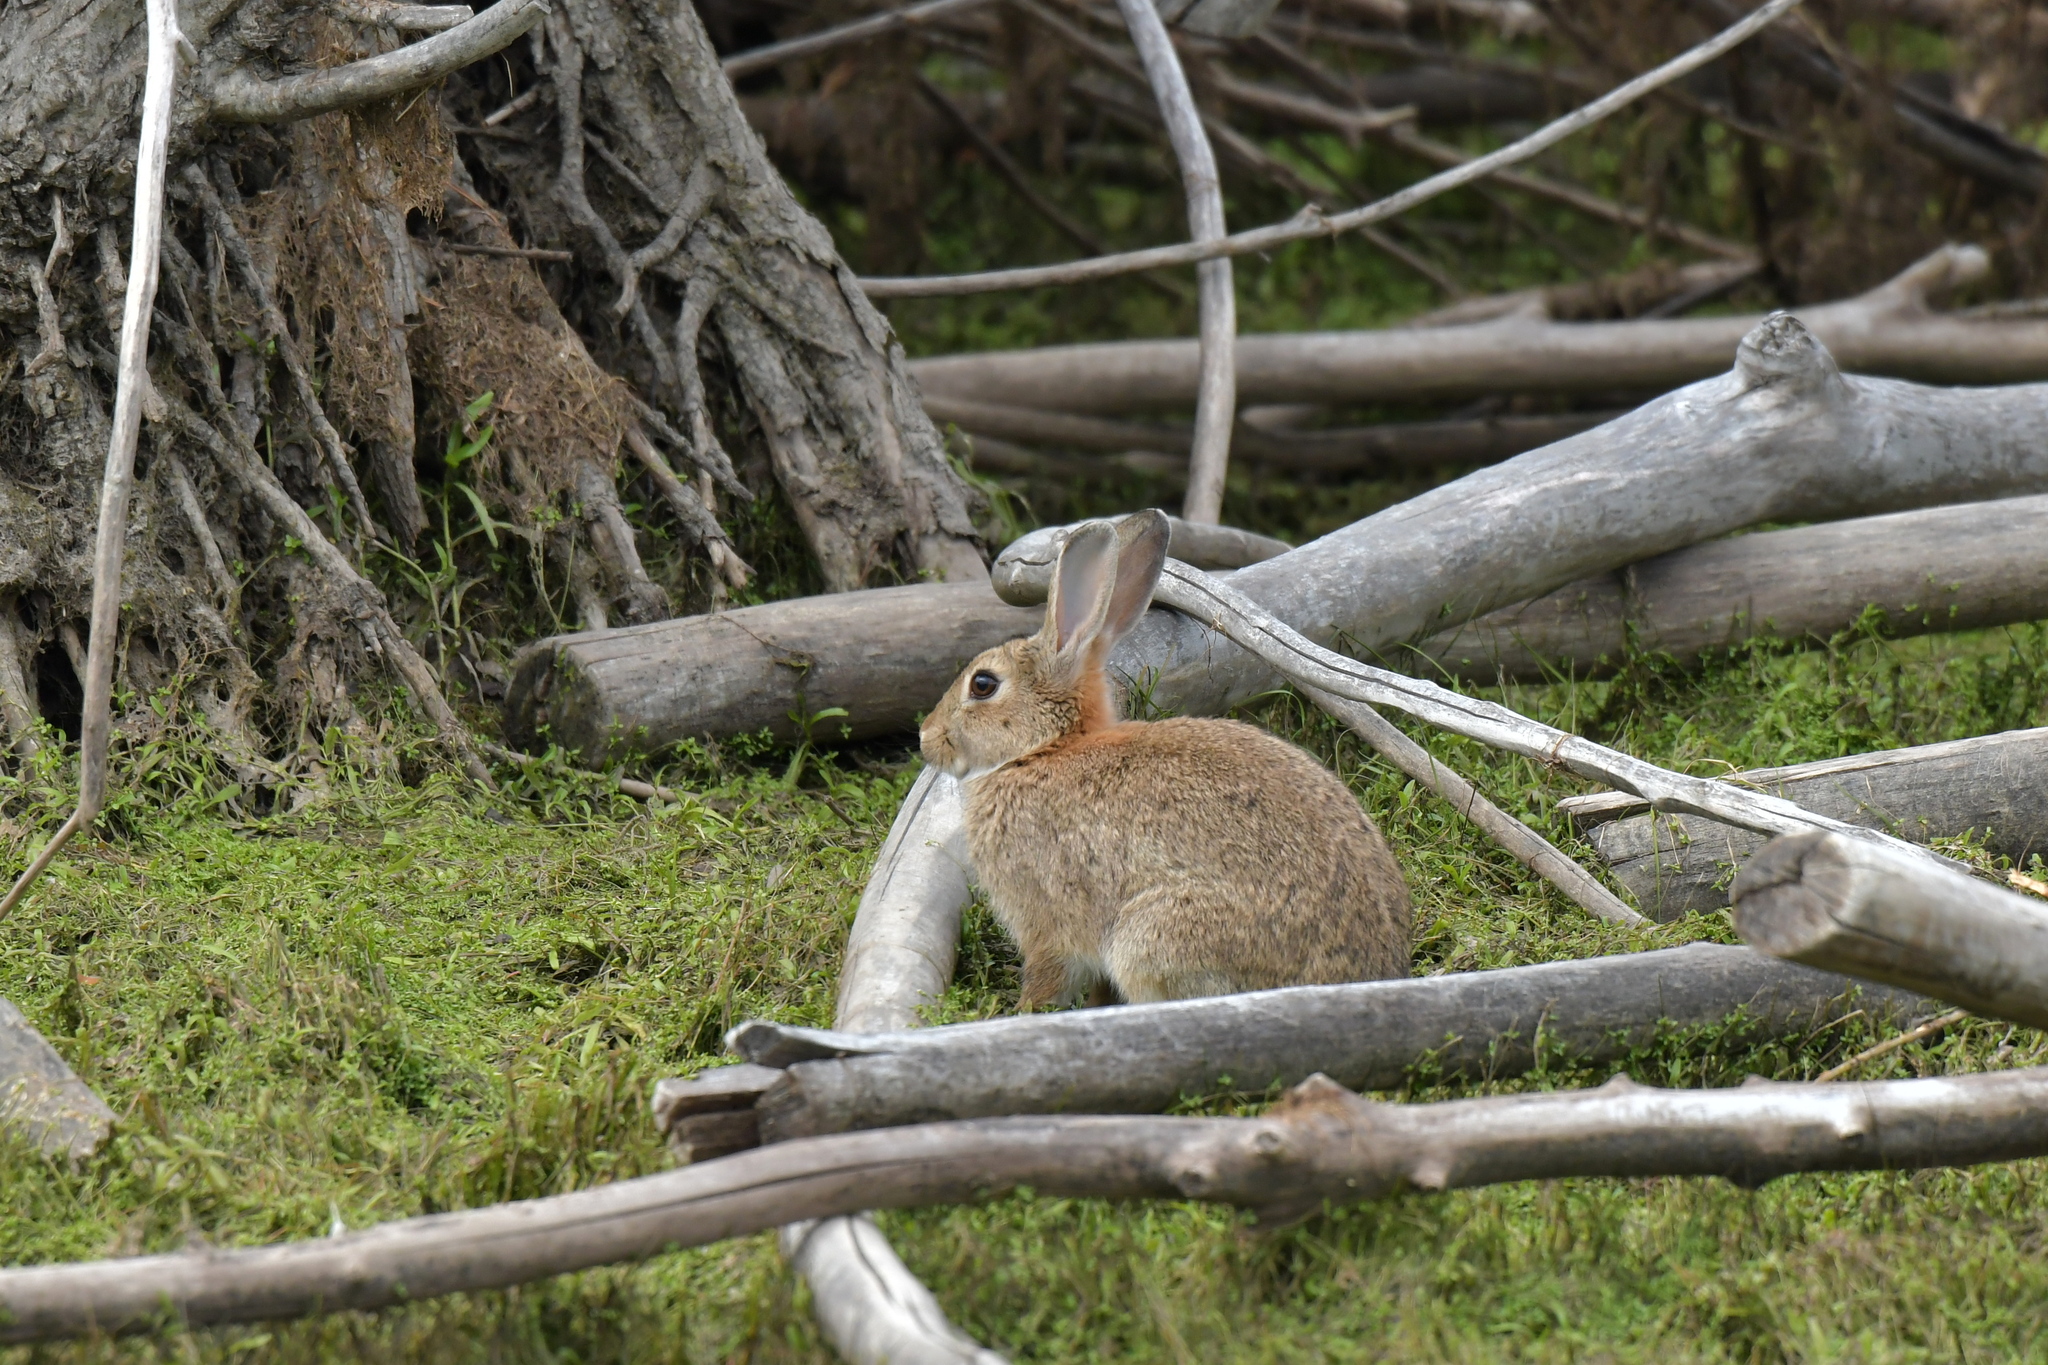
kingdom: Animalia
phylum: Chordata
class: Mammalia
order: Lagomorpha
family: Leporidae
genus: Oryctolagus
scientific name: Oryctolagus cuniculus
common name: European rabbit
